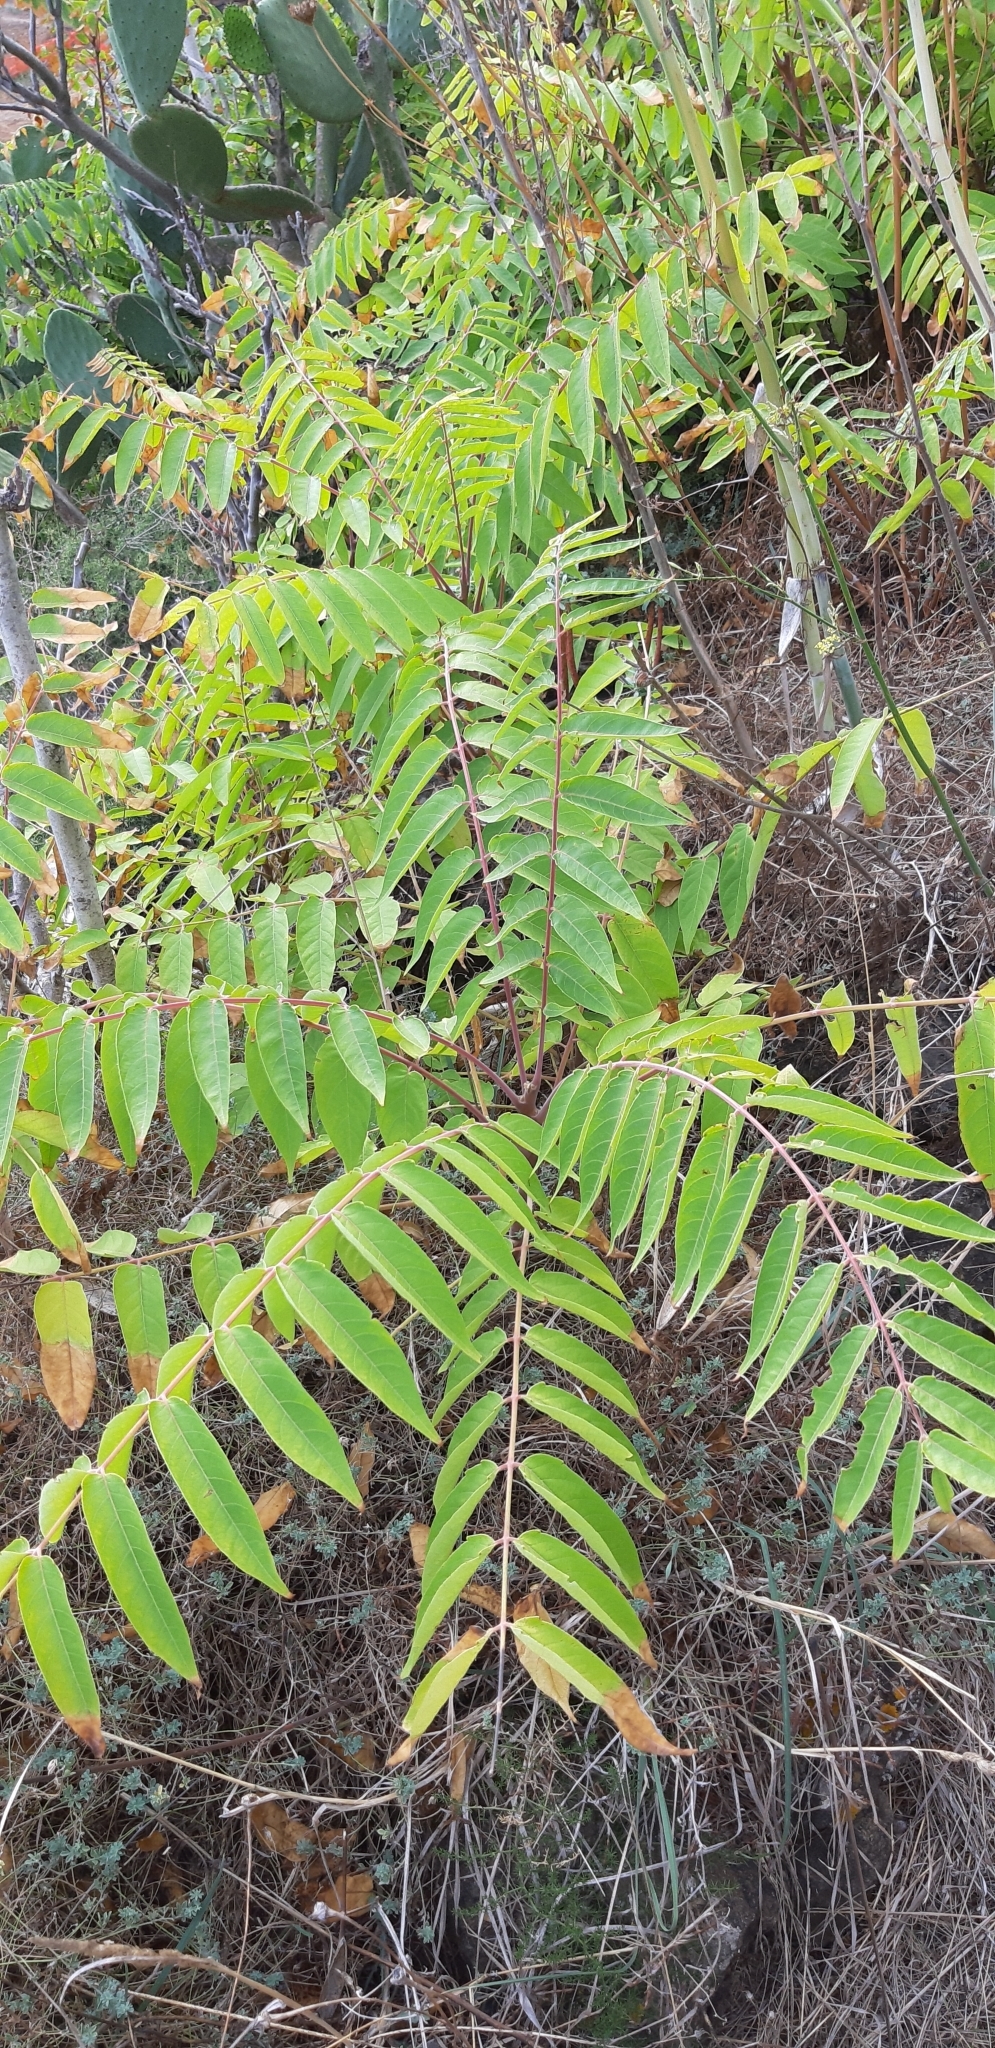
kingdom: Plantae
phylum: Tracheophyta
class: Magnoliopsida
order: Sapindales
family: Simaroubaceae
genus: Ailanthus
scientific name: Ailanthus altissima
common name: Tree-of-heaven
